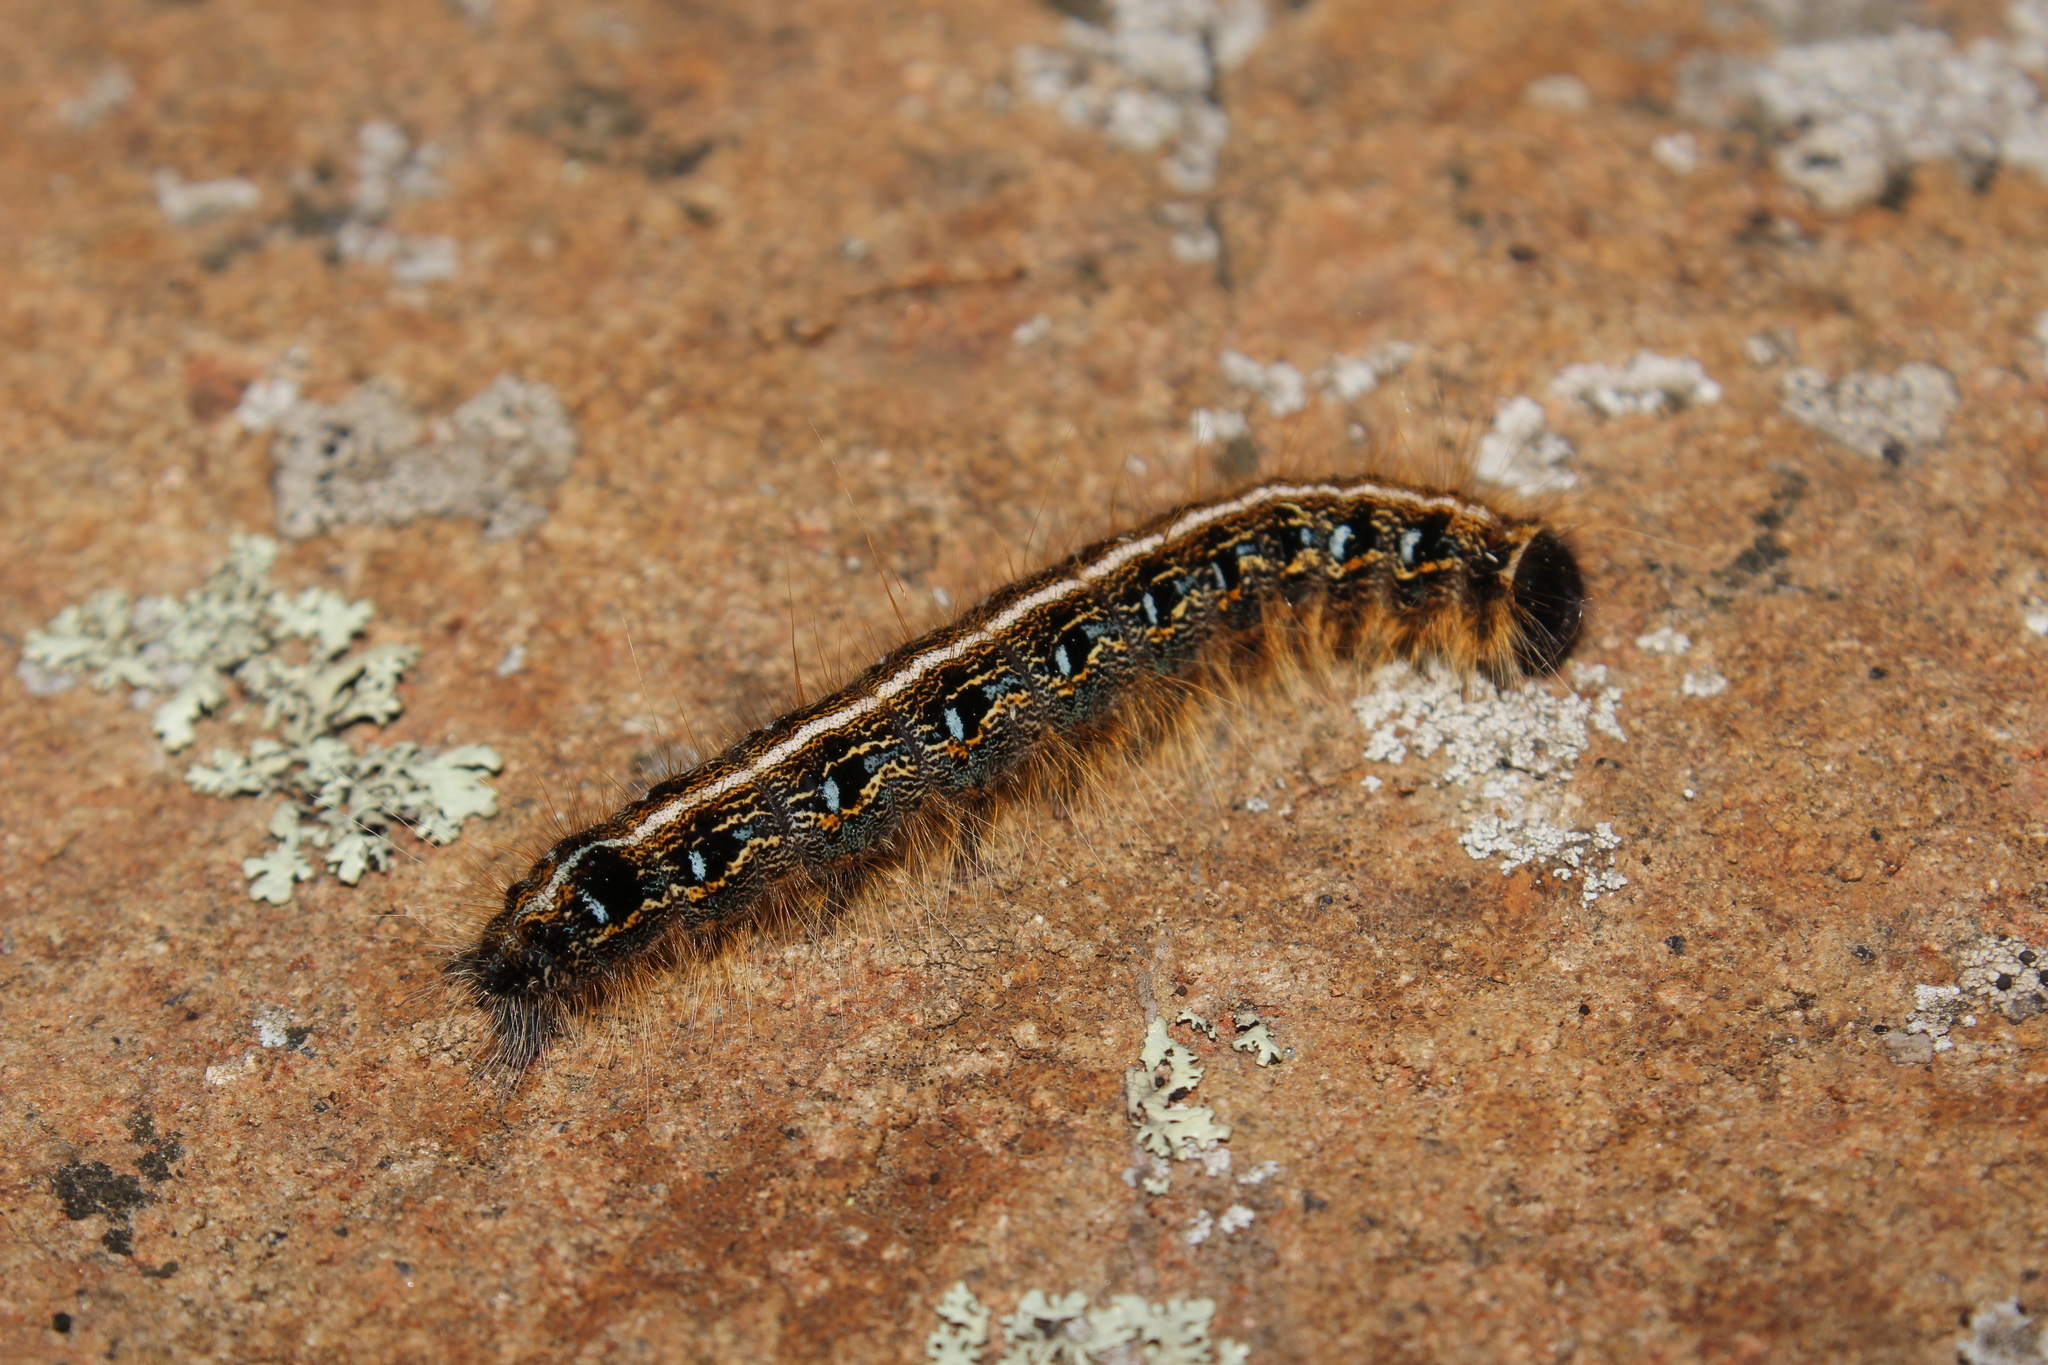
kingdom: Animalia
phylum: Arthropoda
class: Insecta
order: Lepidoptera
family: Lasiocampidae
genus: Malacosoma
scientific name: Malacosoma americana
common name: Eastern tent caterpillar moth
